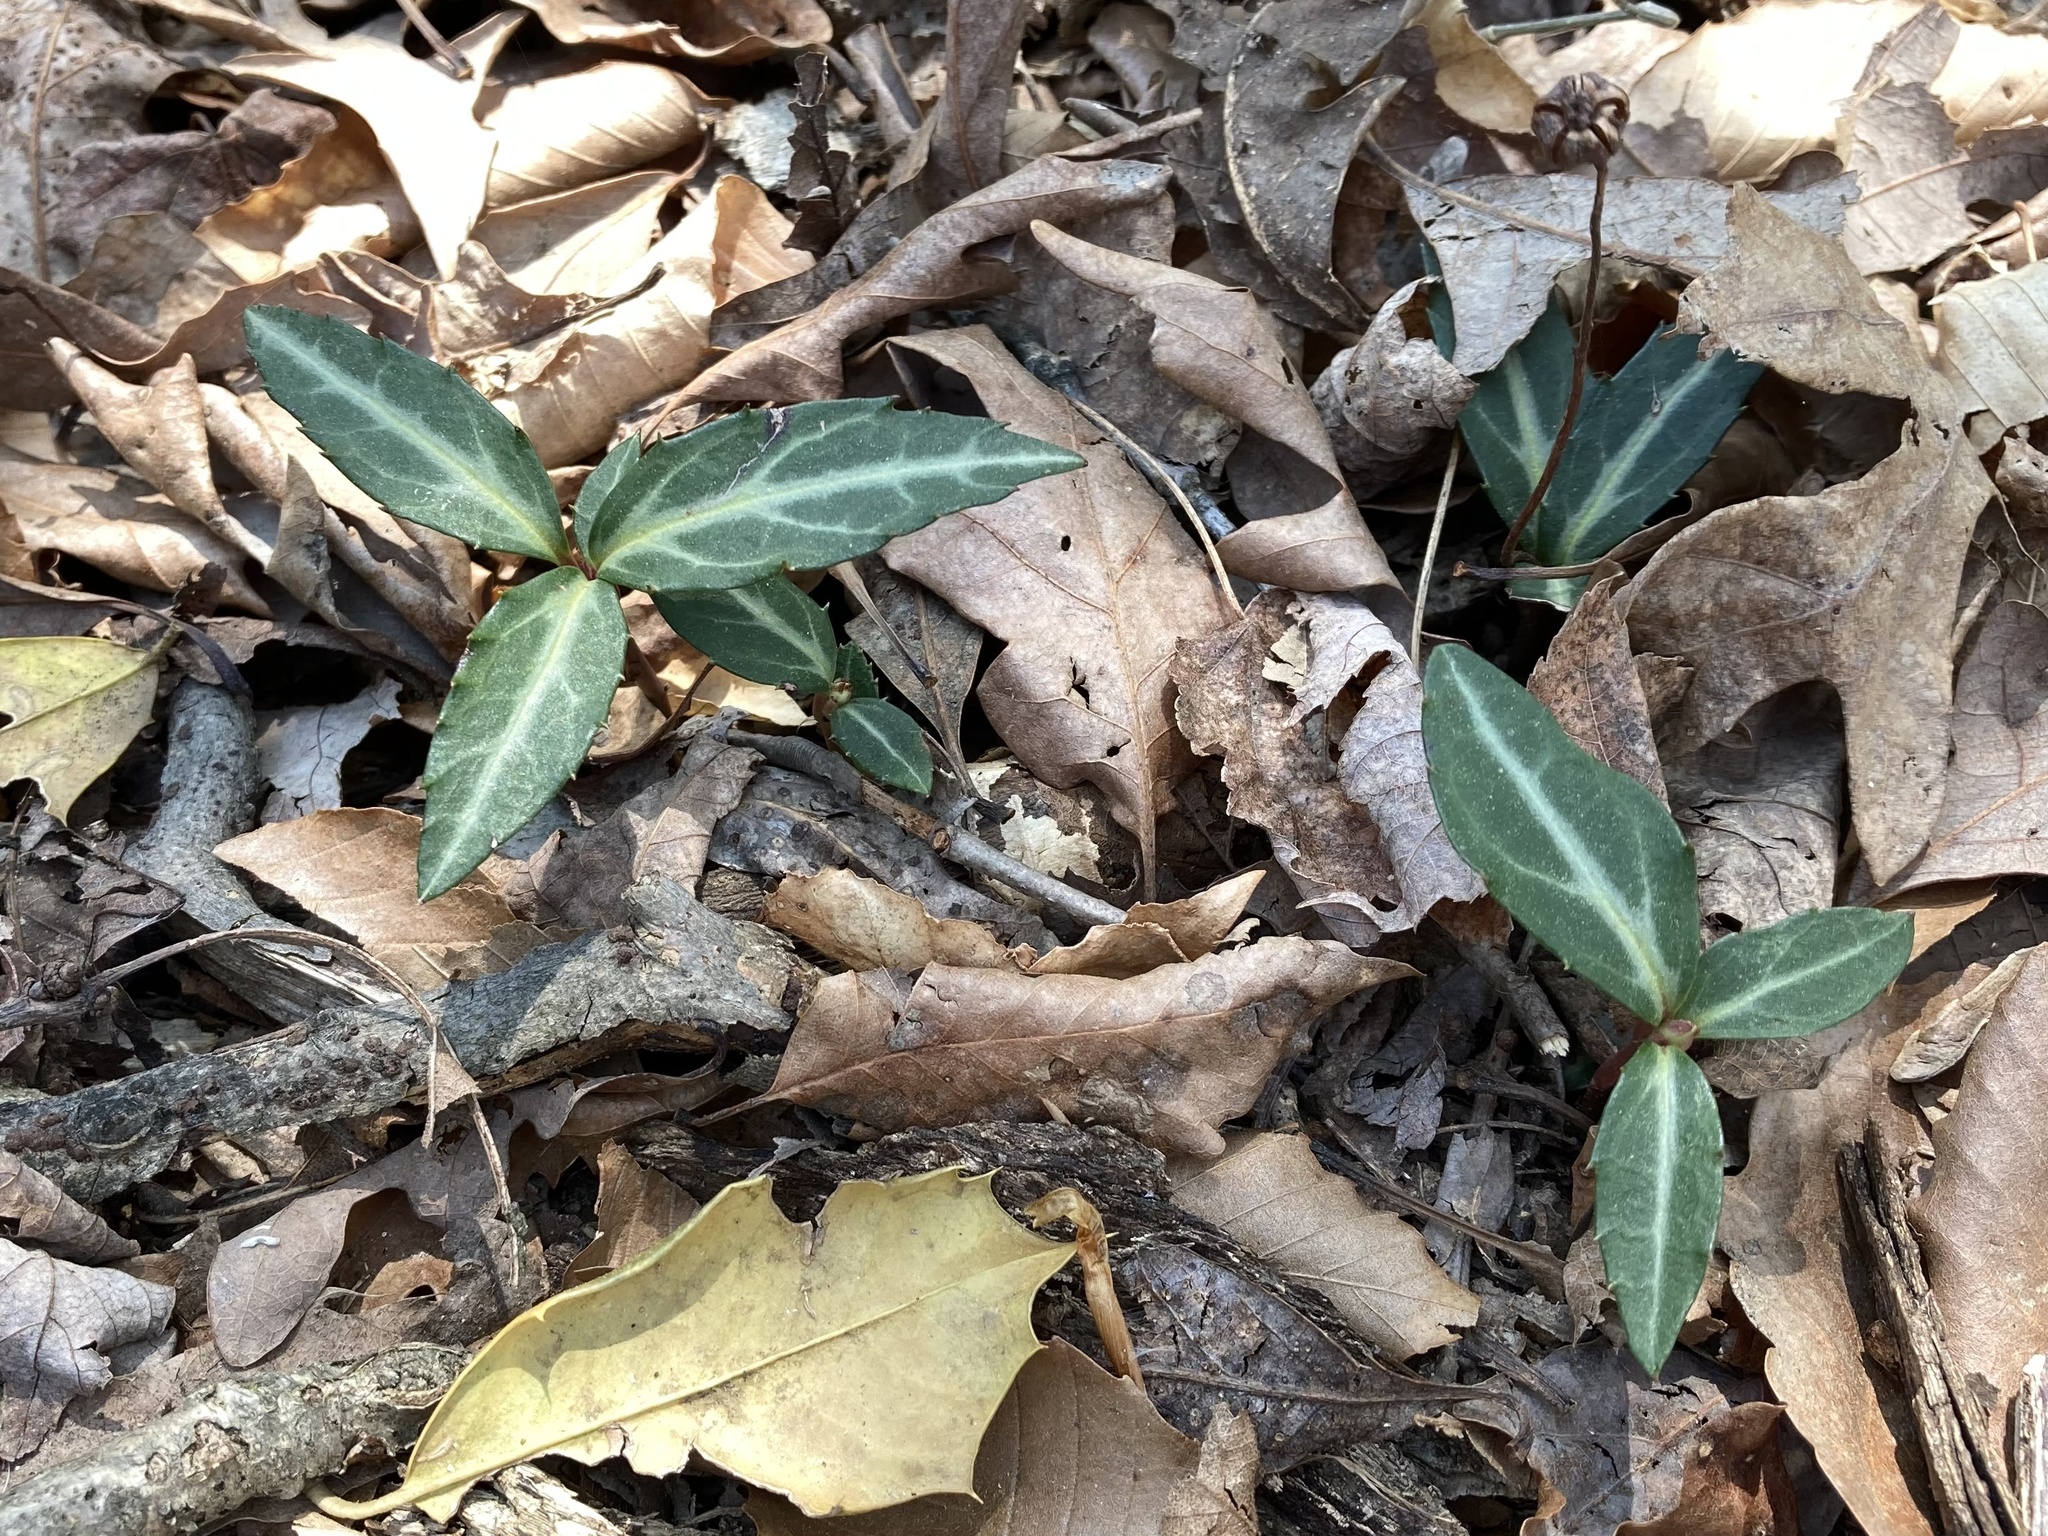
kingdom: Plantae
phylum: Tracheophyta
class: Magnoliopsida
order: Ericales
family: Ericaceae
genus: Chimaphila
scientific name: Chimaphila maculata
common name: Spotted pipsissewa
